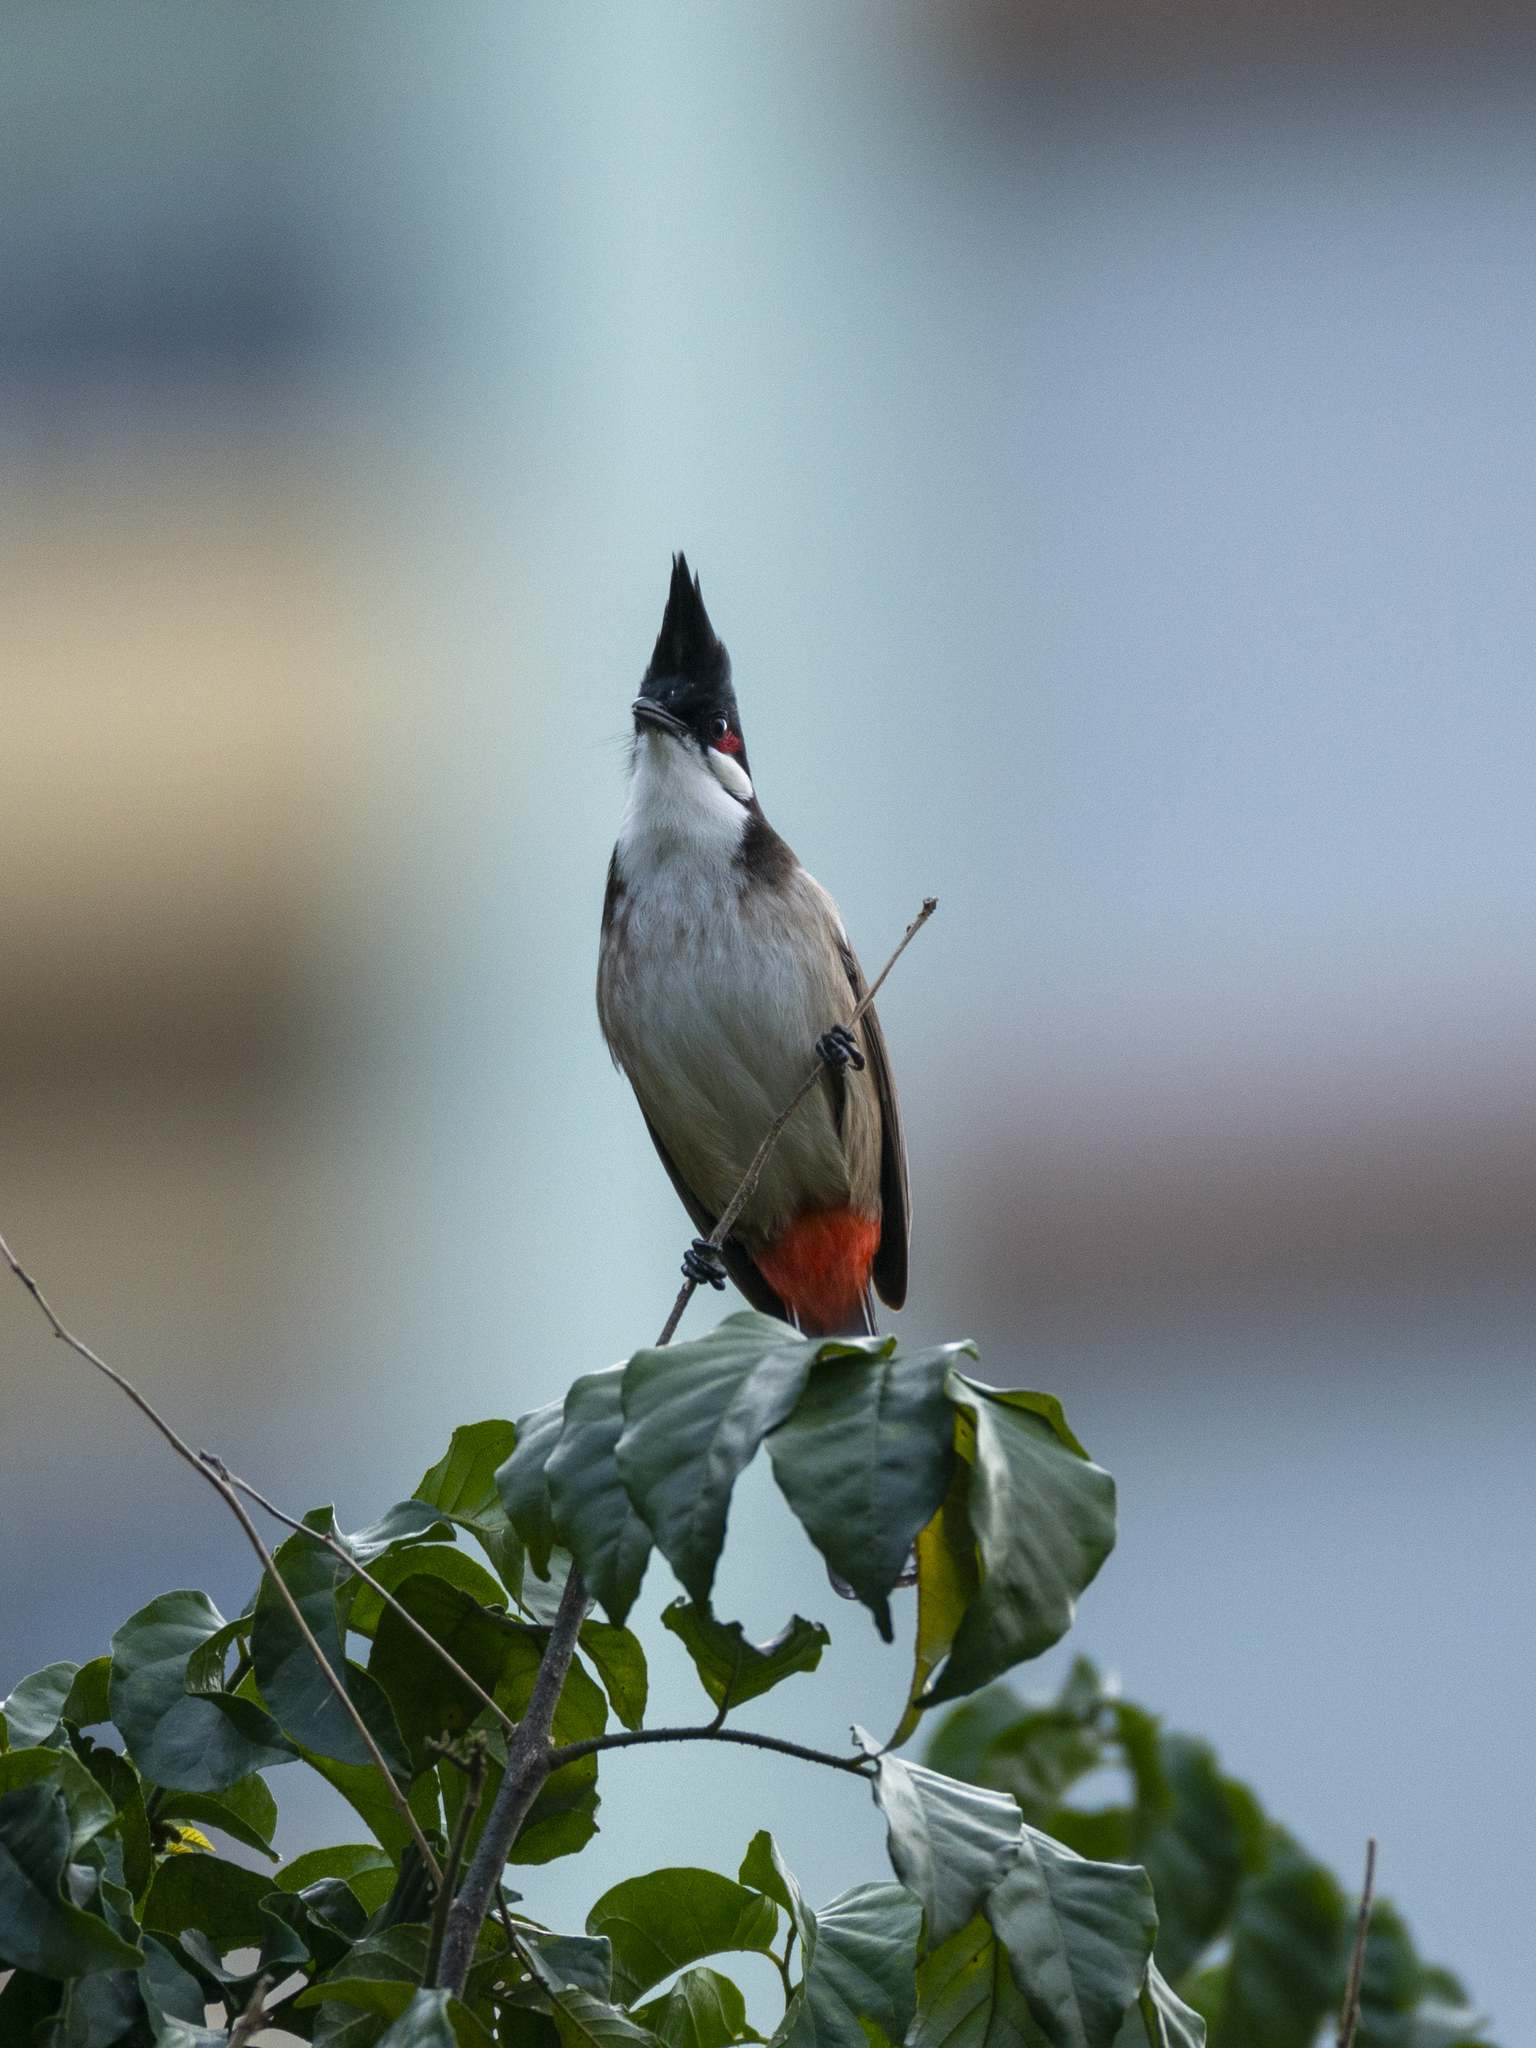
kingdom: Animalia
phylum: Chordata
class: Aves
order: Passeriformes
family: Pycnonotidae
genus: Pycnonotus
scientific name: Pycnonotus jocosus
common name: Red-whiskered bulbul
